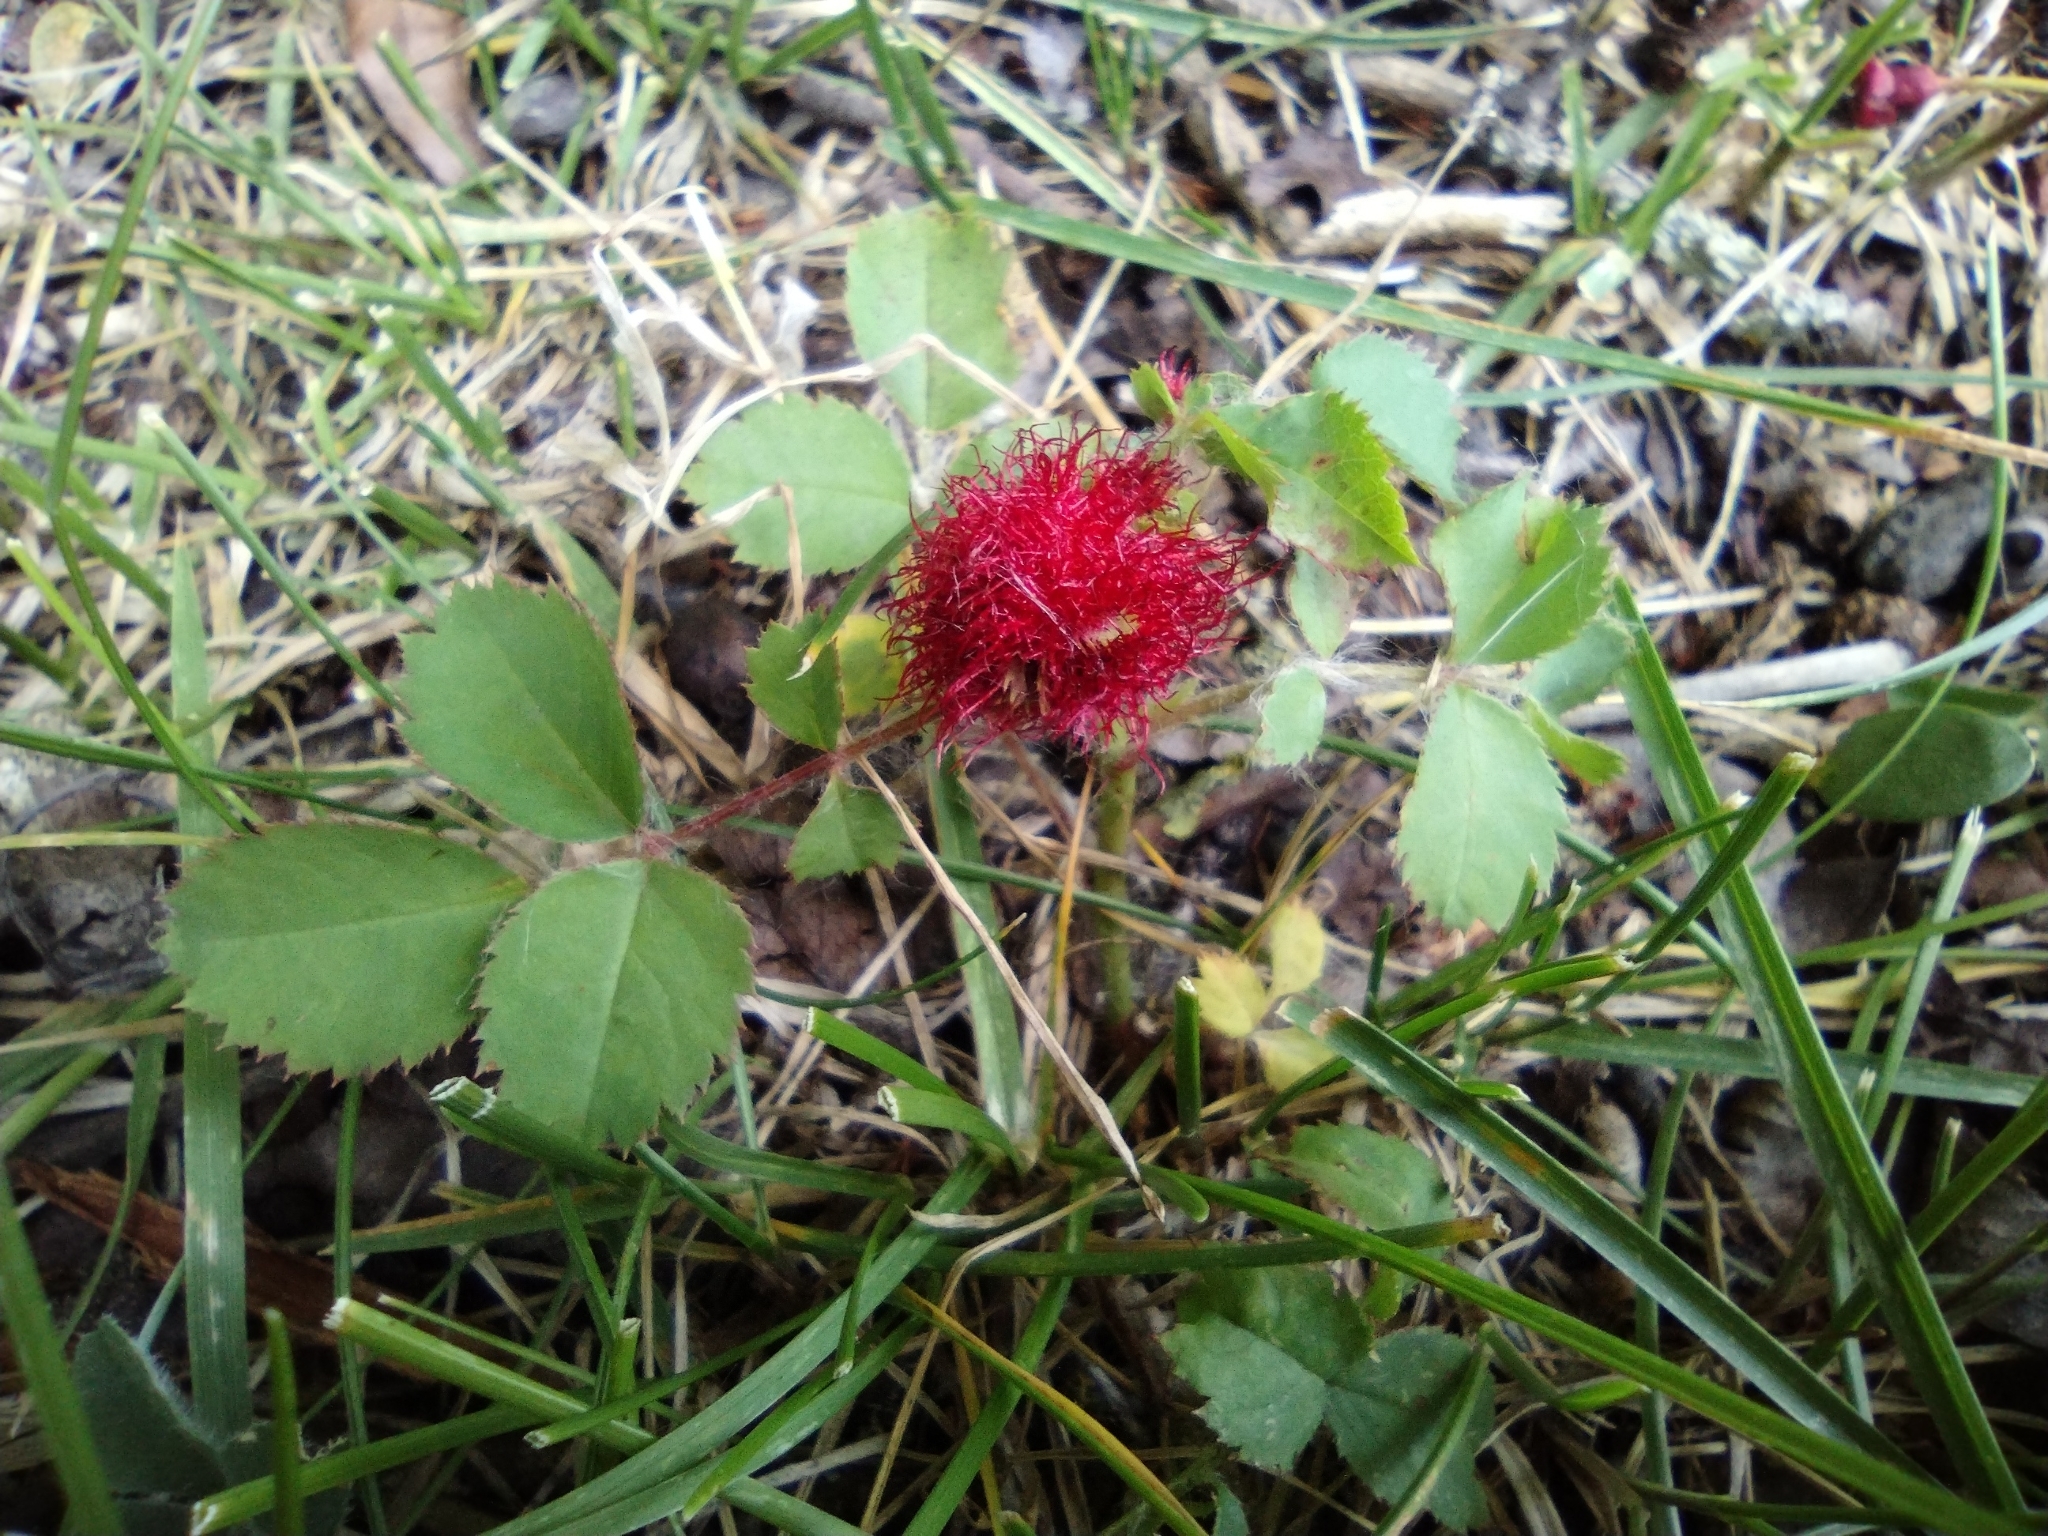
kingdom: Animalia
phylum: Arthropoda
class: Insecta
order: Hymenoptera
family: Cynipidae
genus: Diplolepis
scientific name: Diplolepis rosae
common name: Bedeguar gall
